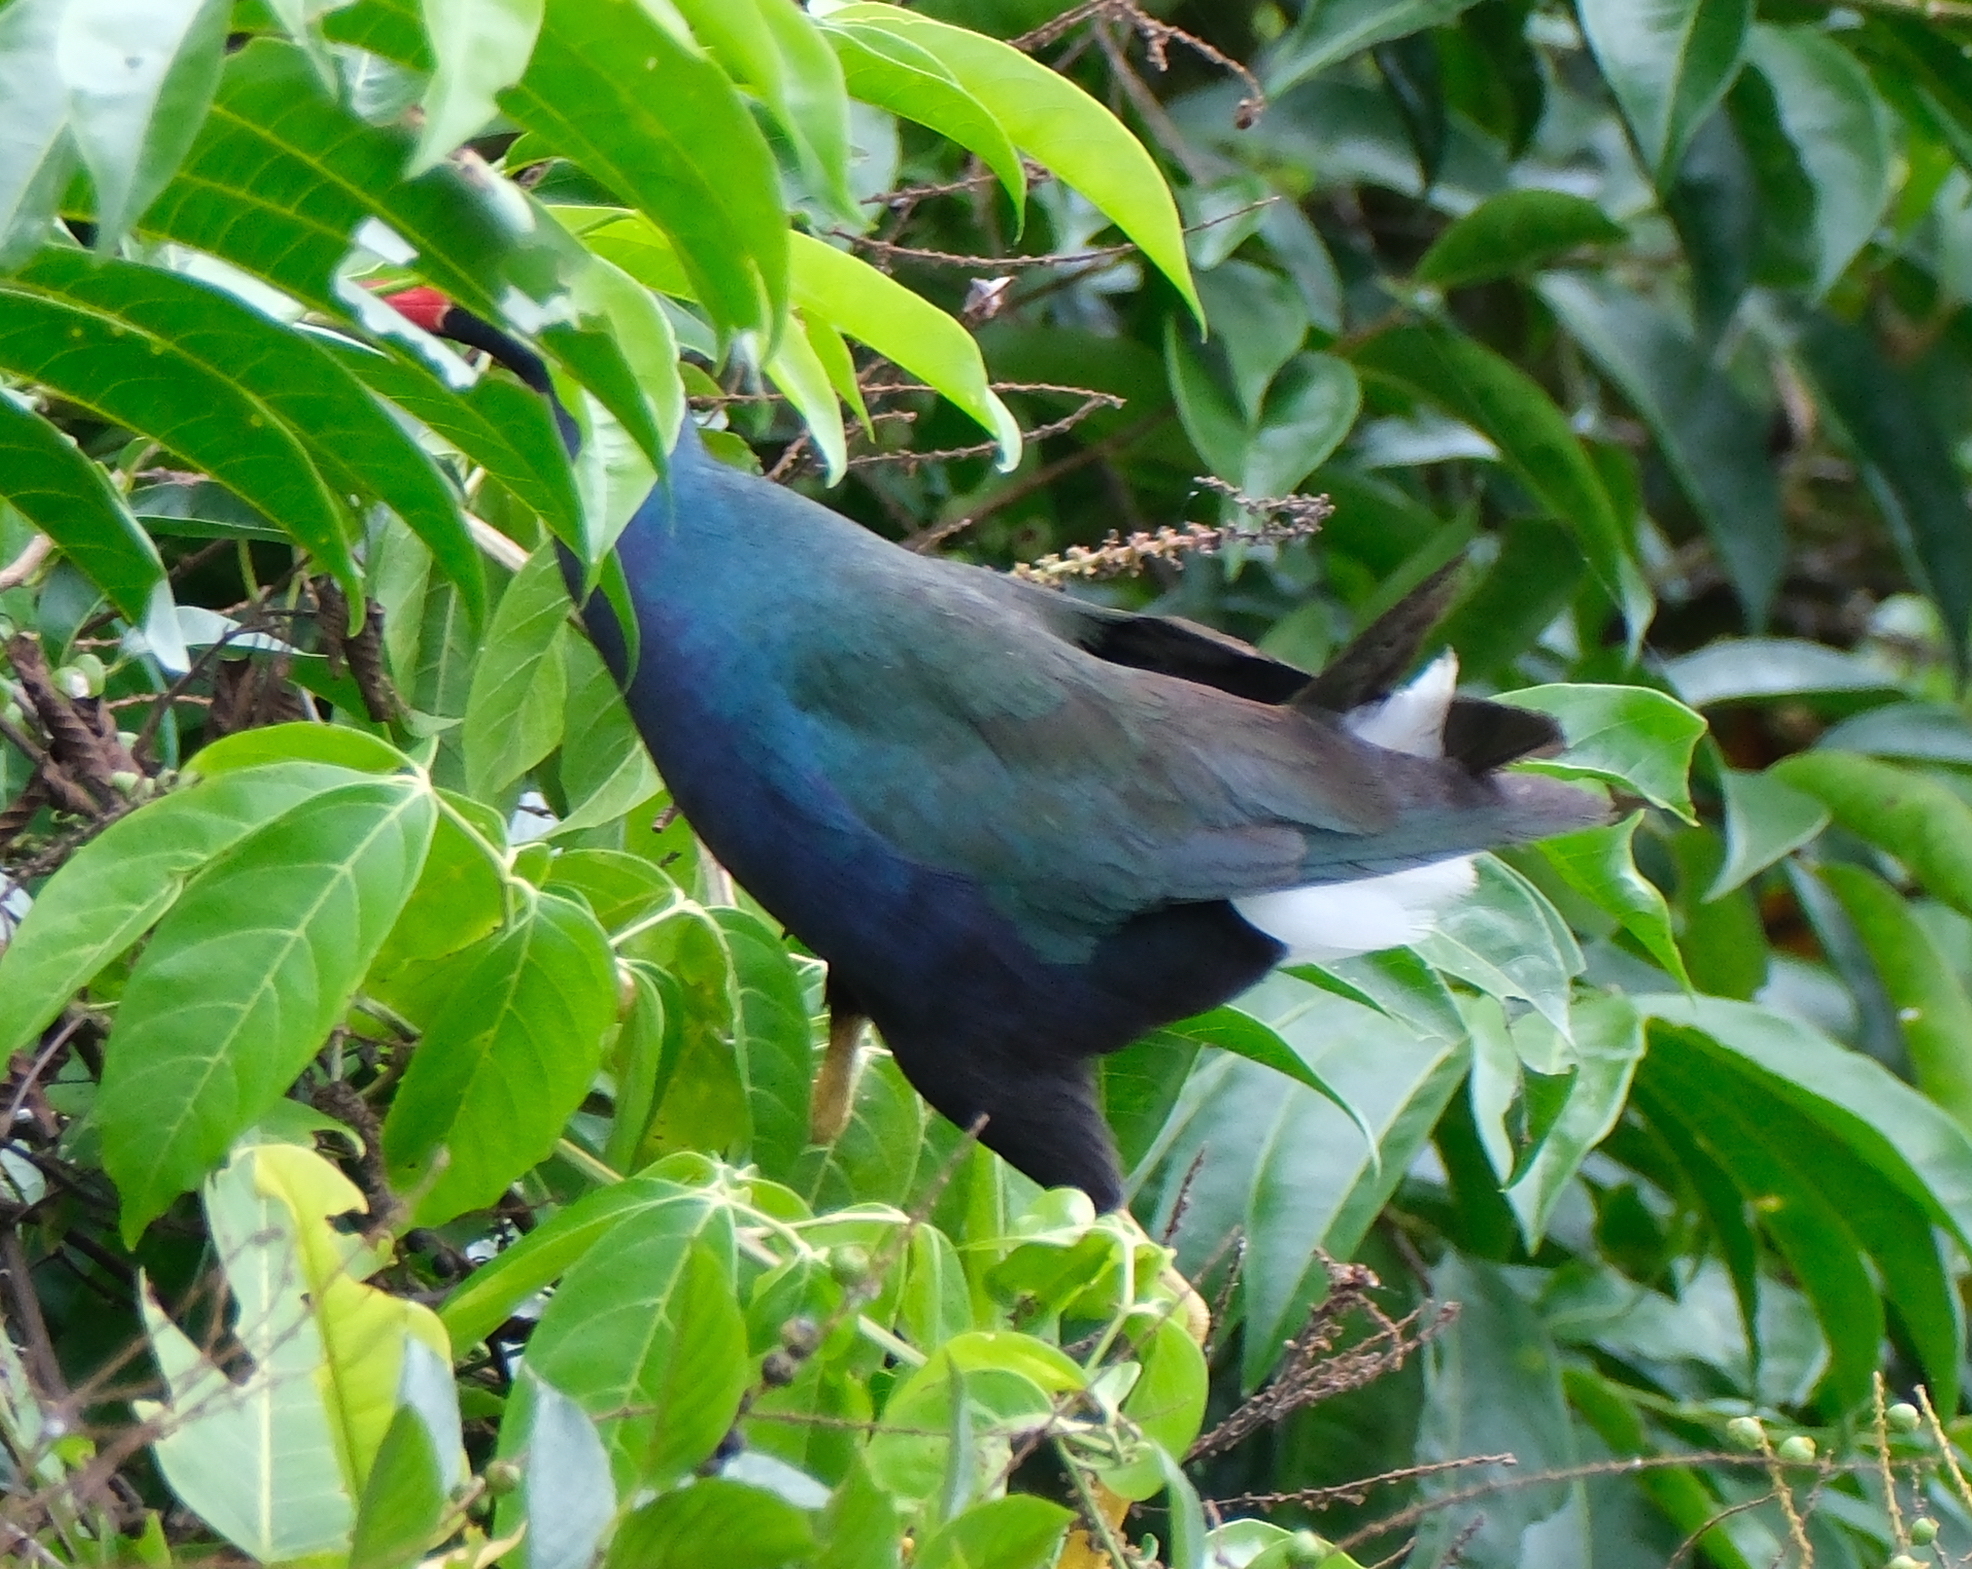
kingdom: Animalia
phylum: Chordata
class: Aves
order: Gruiformes
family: Rallidae
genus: Porphyrio
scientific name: Porphyrio martinica
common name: Purple gallinule
